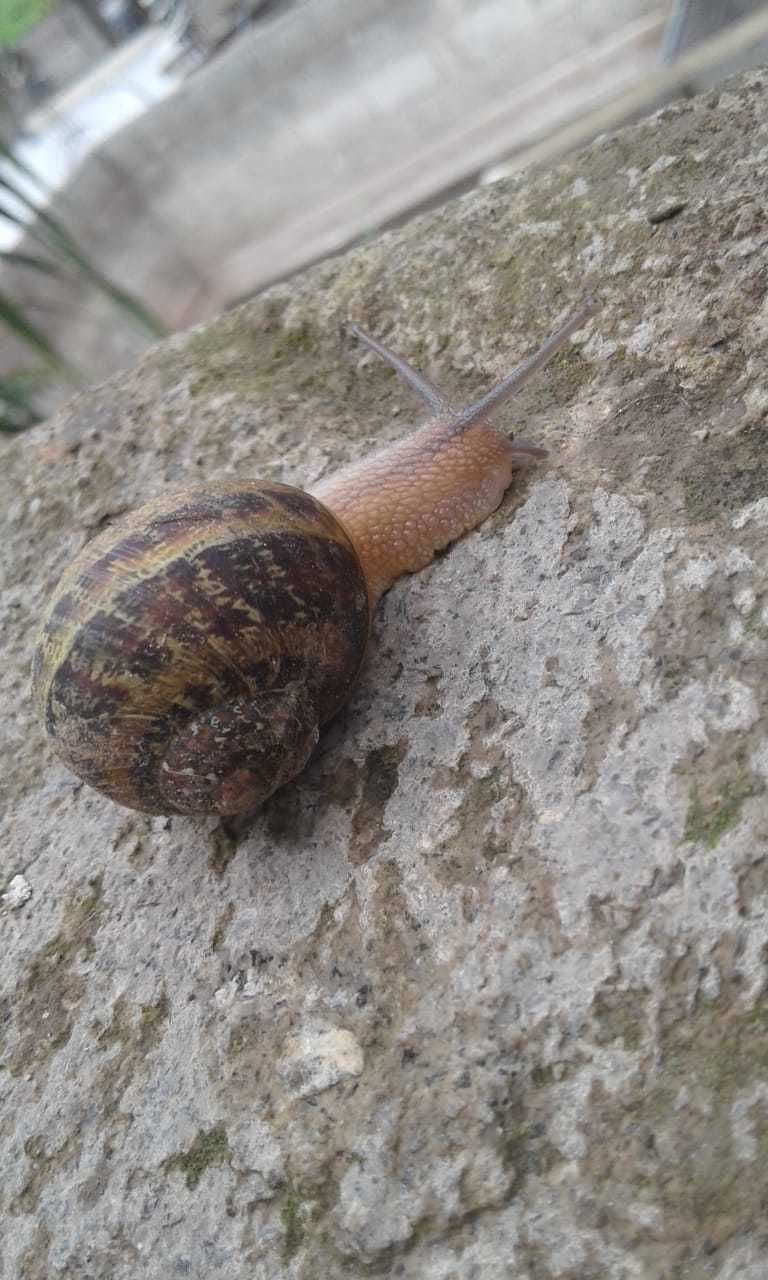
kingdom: Animalia
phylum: Mollusca
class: Gastropoda
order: Stylommatophora
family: Helicidae
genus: Cornu
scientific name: Cornu aspersum
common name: Brown garden snail
